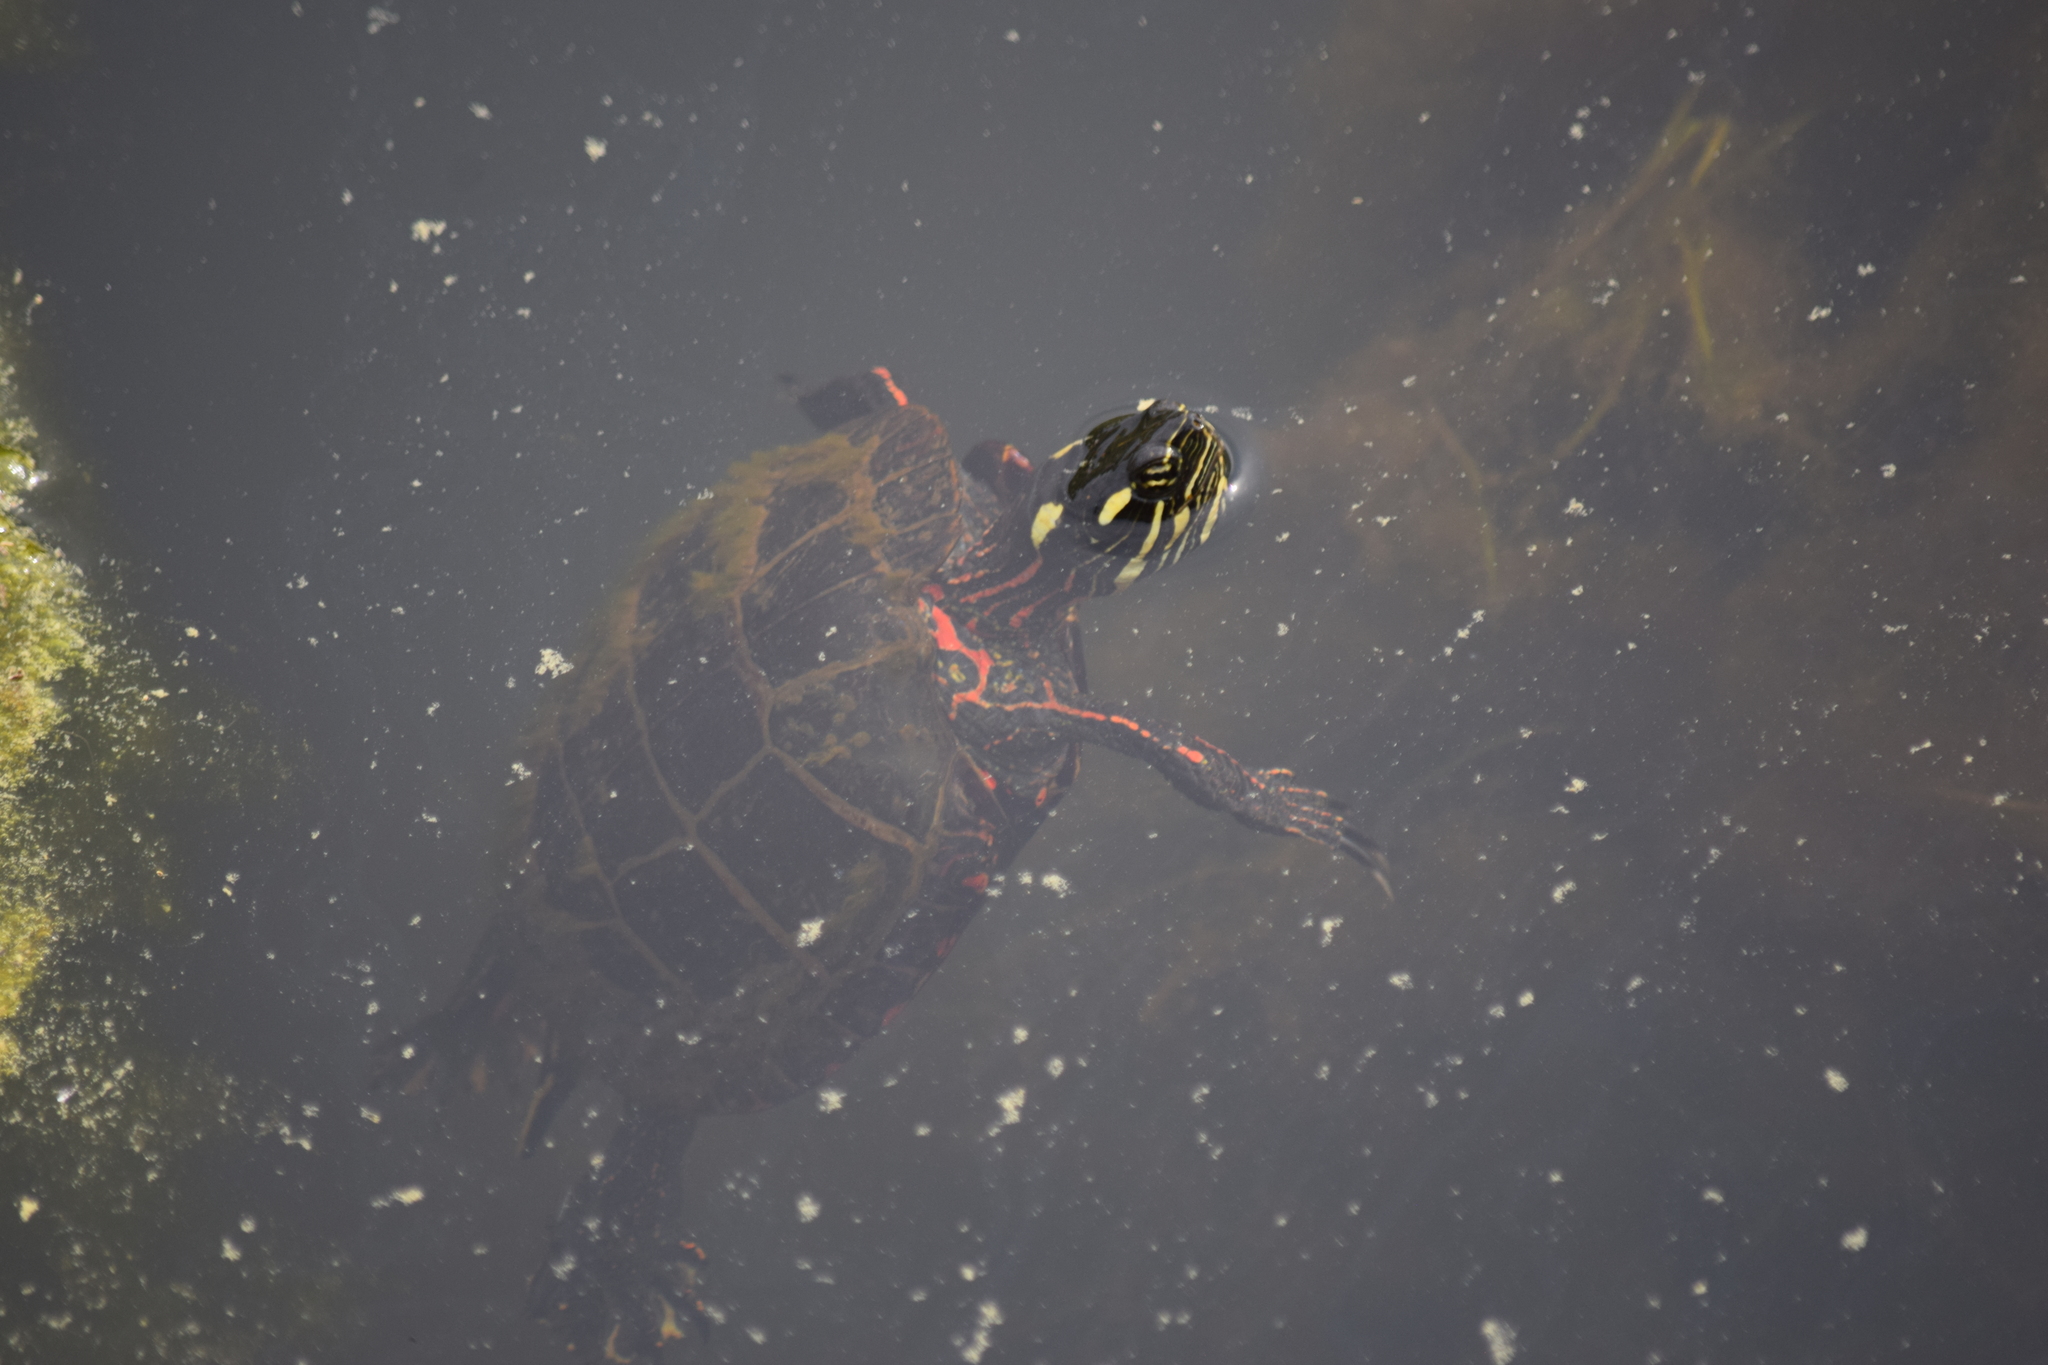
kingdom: Animalia
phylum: Chordata
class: Testudines
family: Emydidae
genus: Chrysemys
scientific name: Chrysemys picta
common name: Painted turtle
